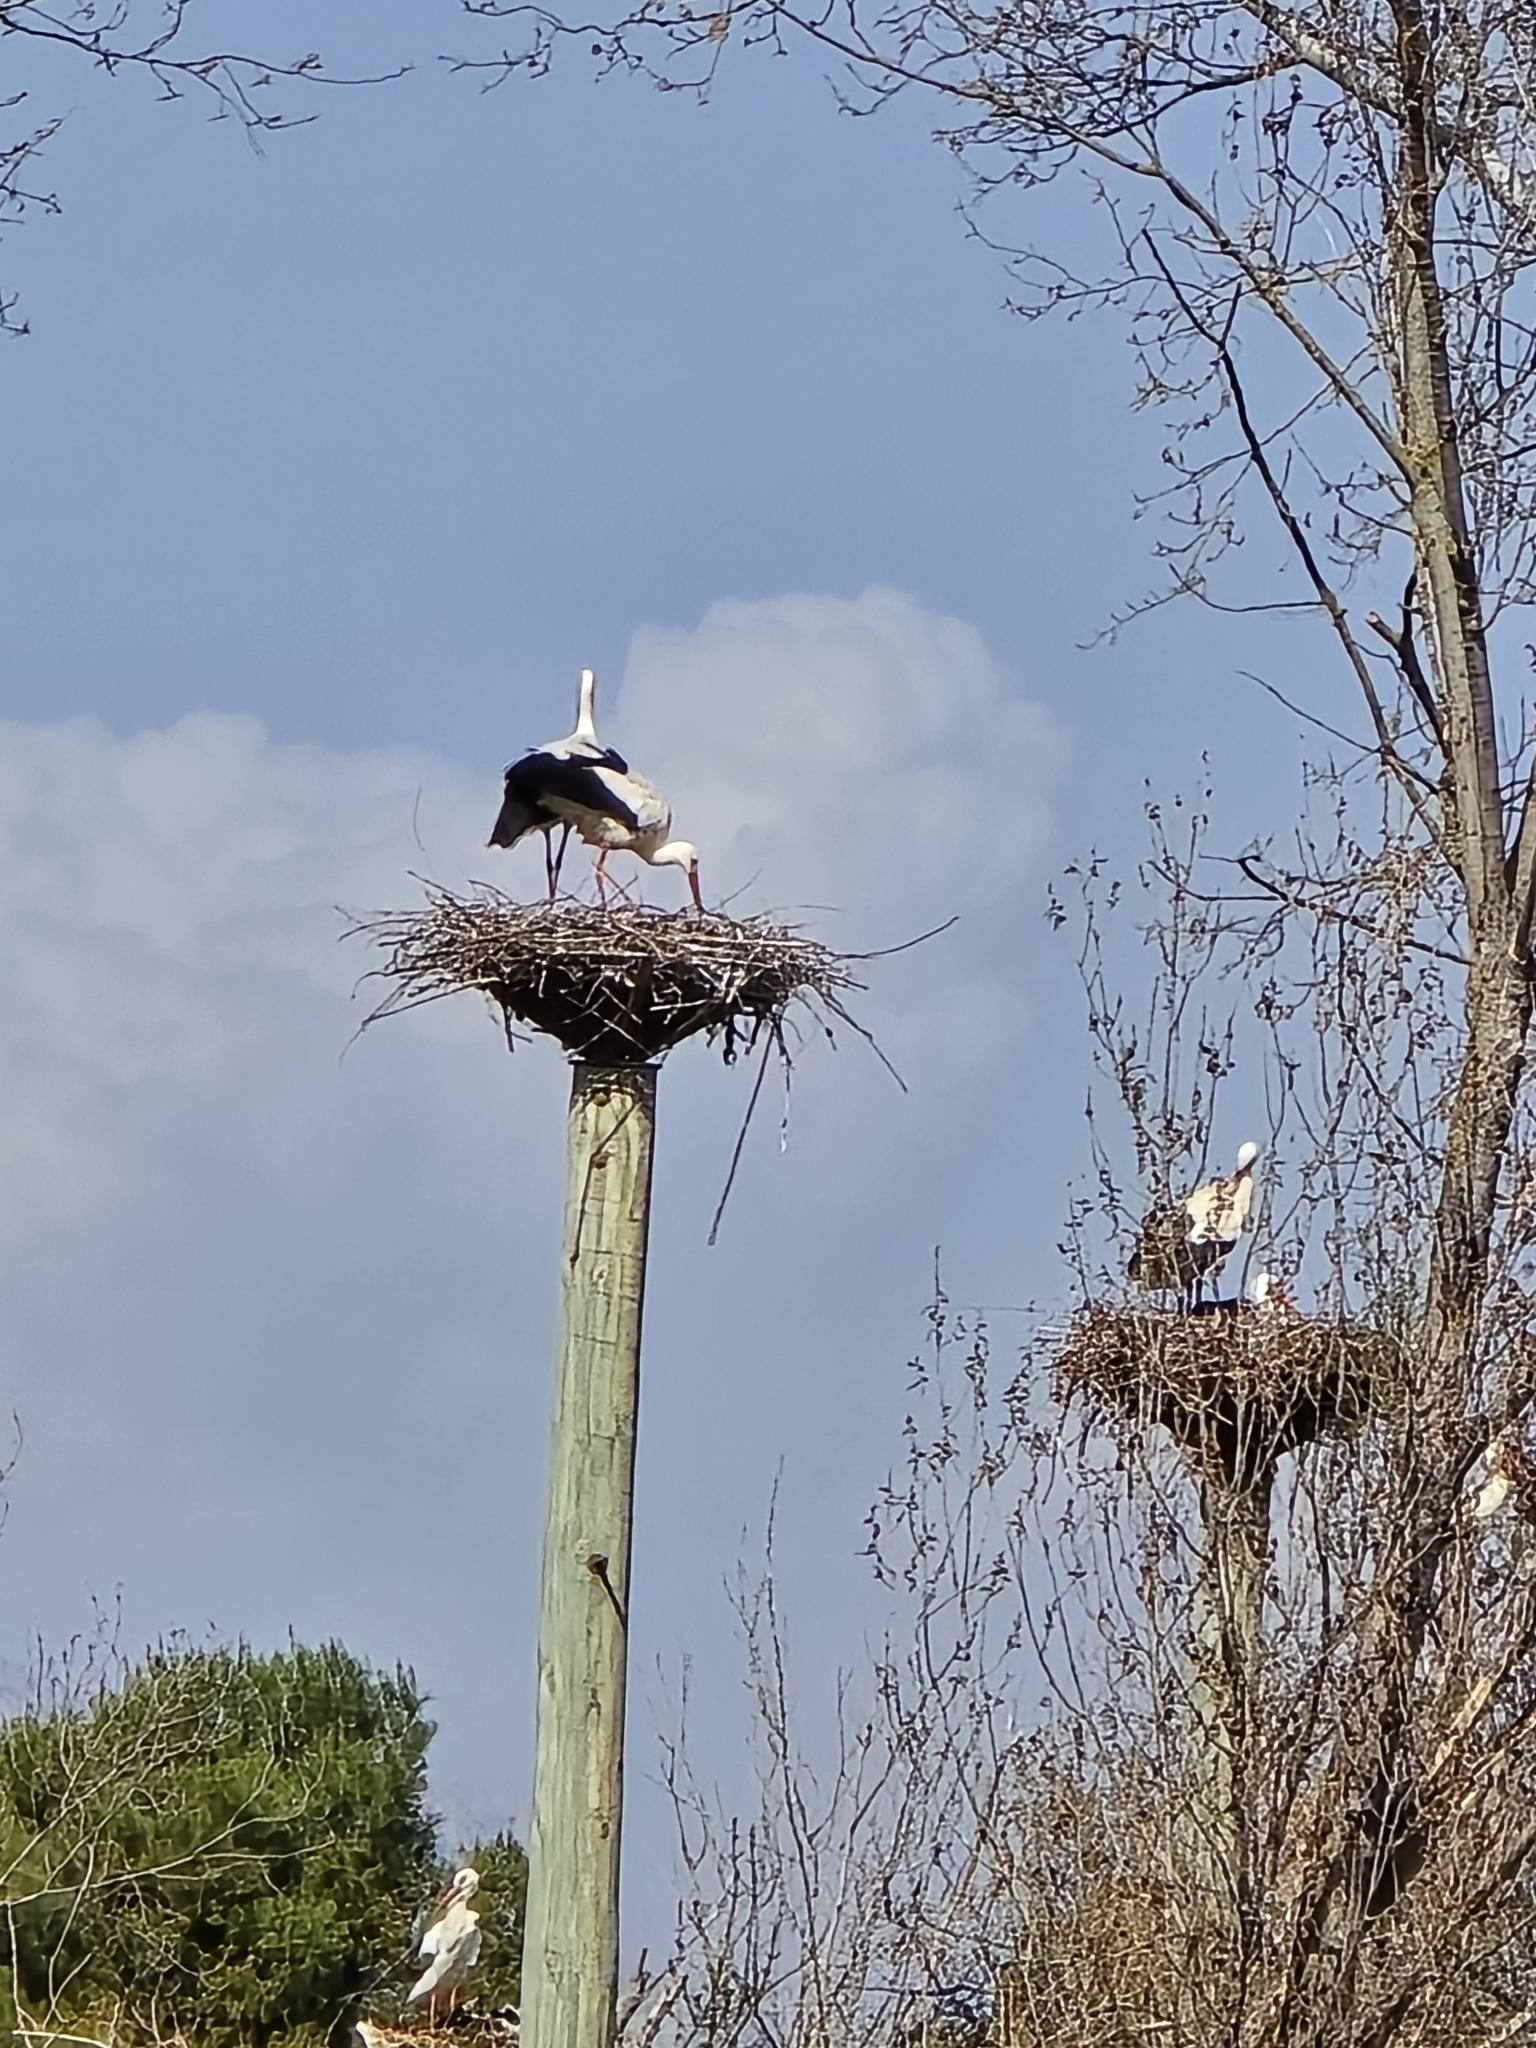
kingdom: Animalia
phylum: Chordata
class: Aves
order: Ciconiiformes
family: Ciconiidae
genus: Ciconia
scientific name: Ciconia ciconia
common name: White stork
